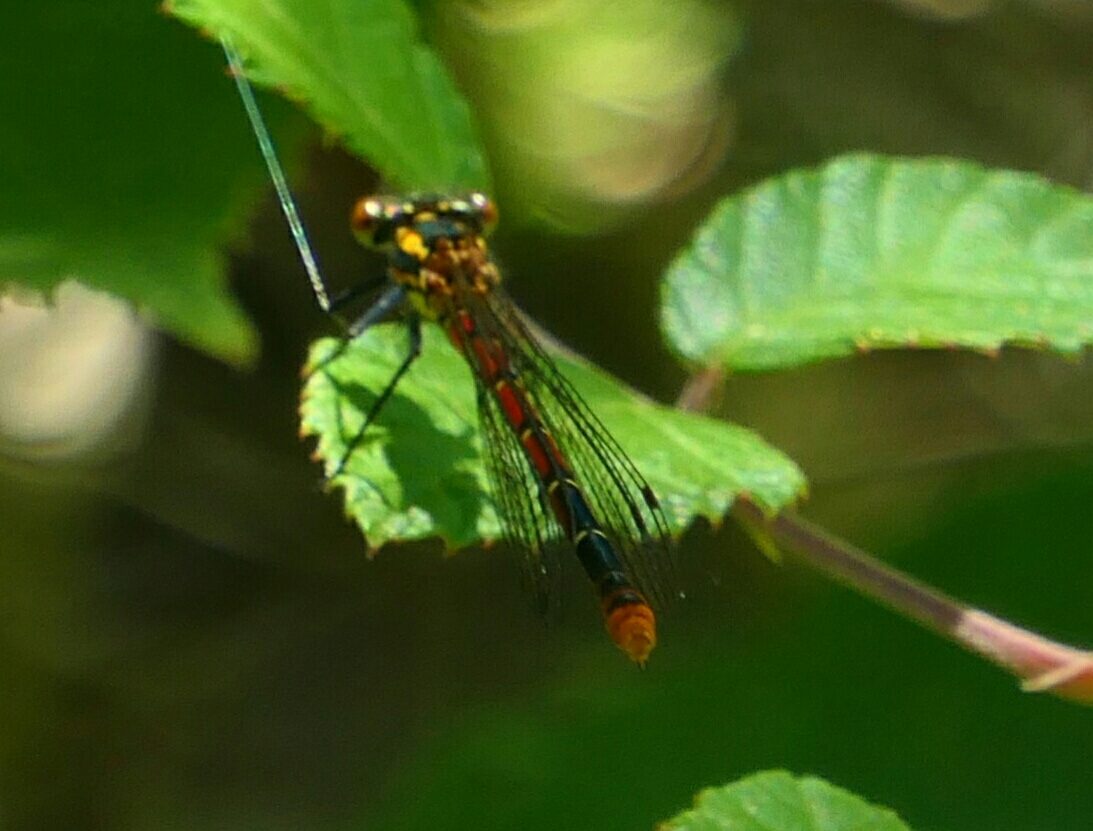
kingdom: Animalia
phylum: Arthropoda
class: Insecta
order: Odonata
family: Coenagrionidae
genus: Pyrrhosoma
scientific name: Pyrrhosoma nymphula
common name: Large red damsel
